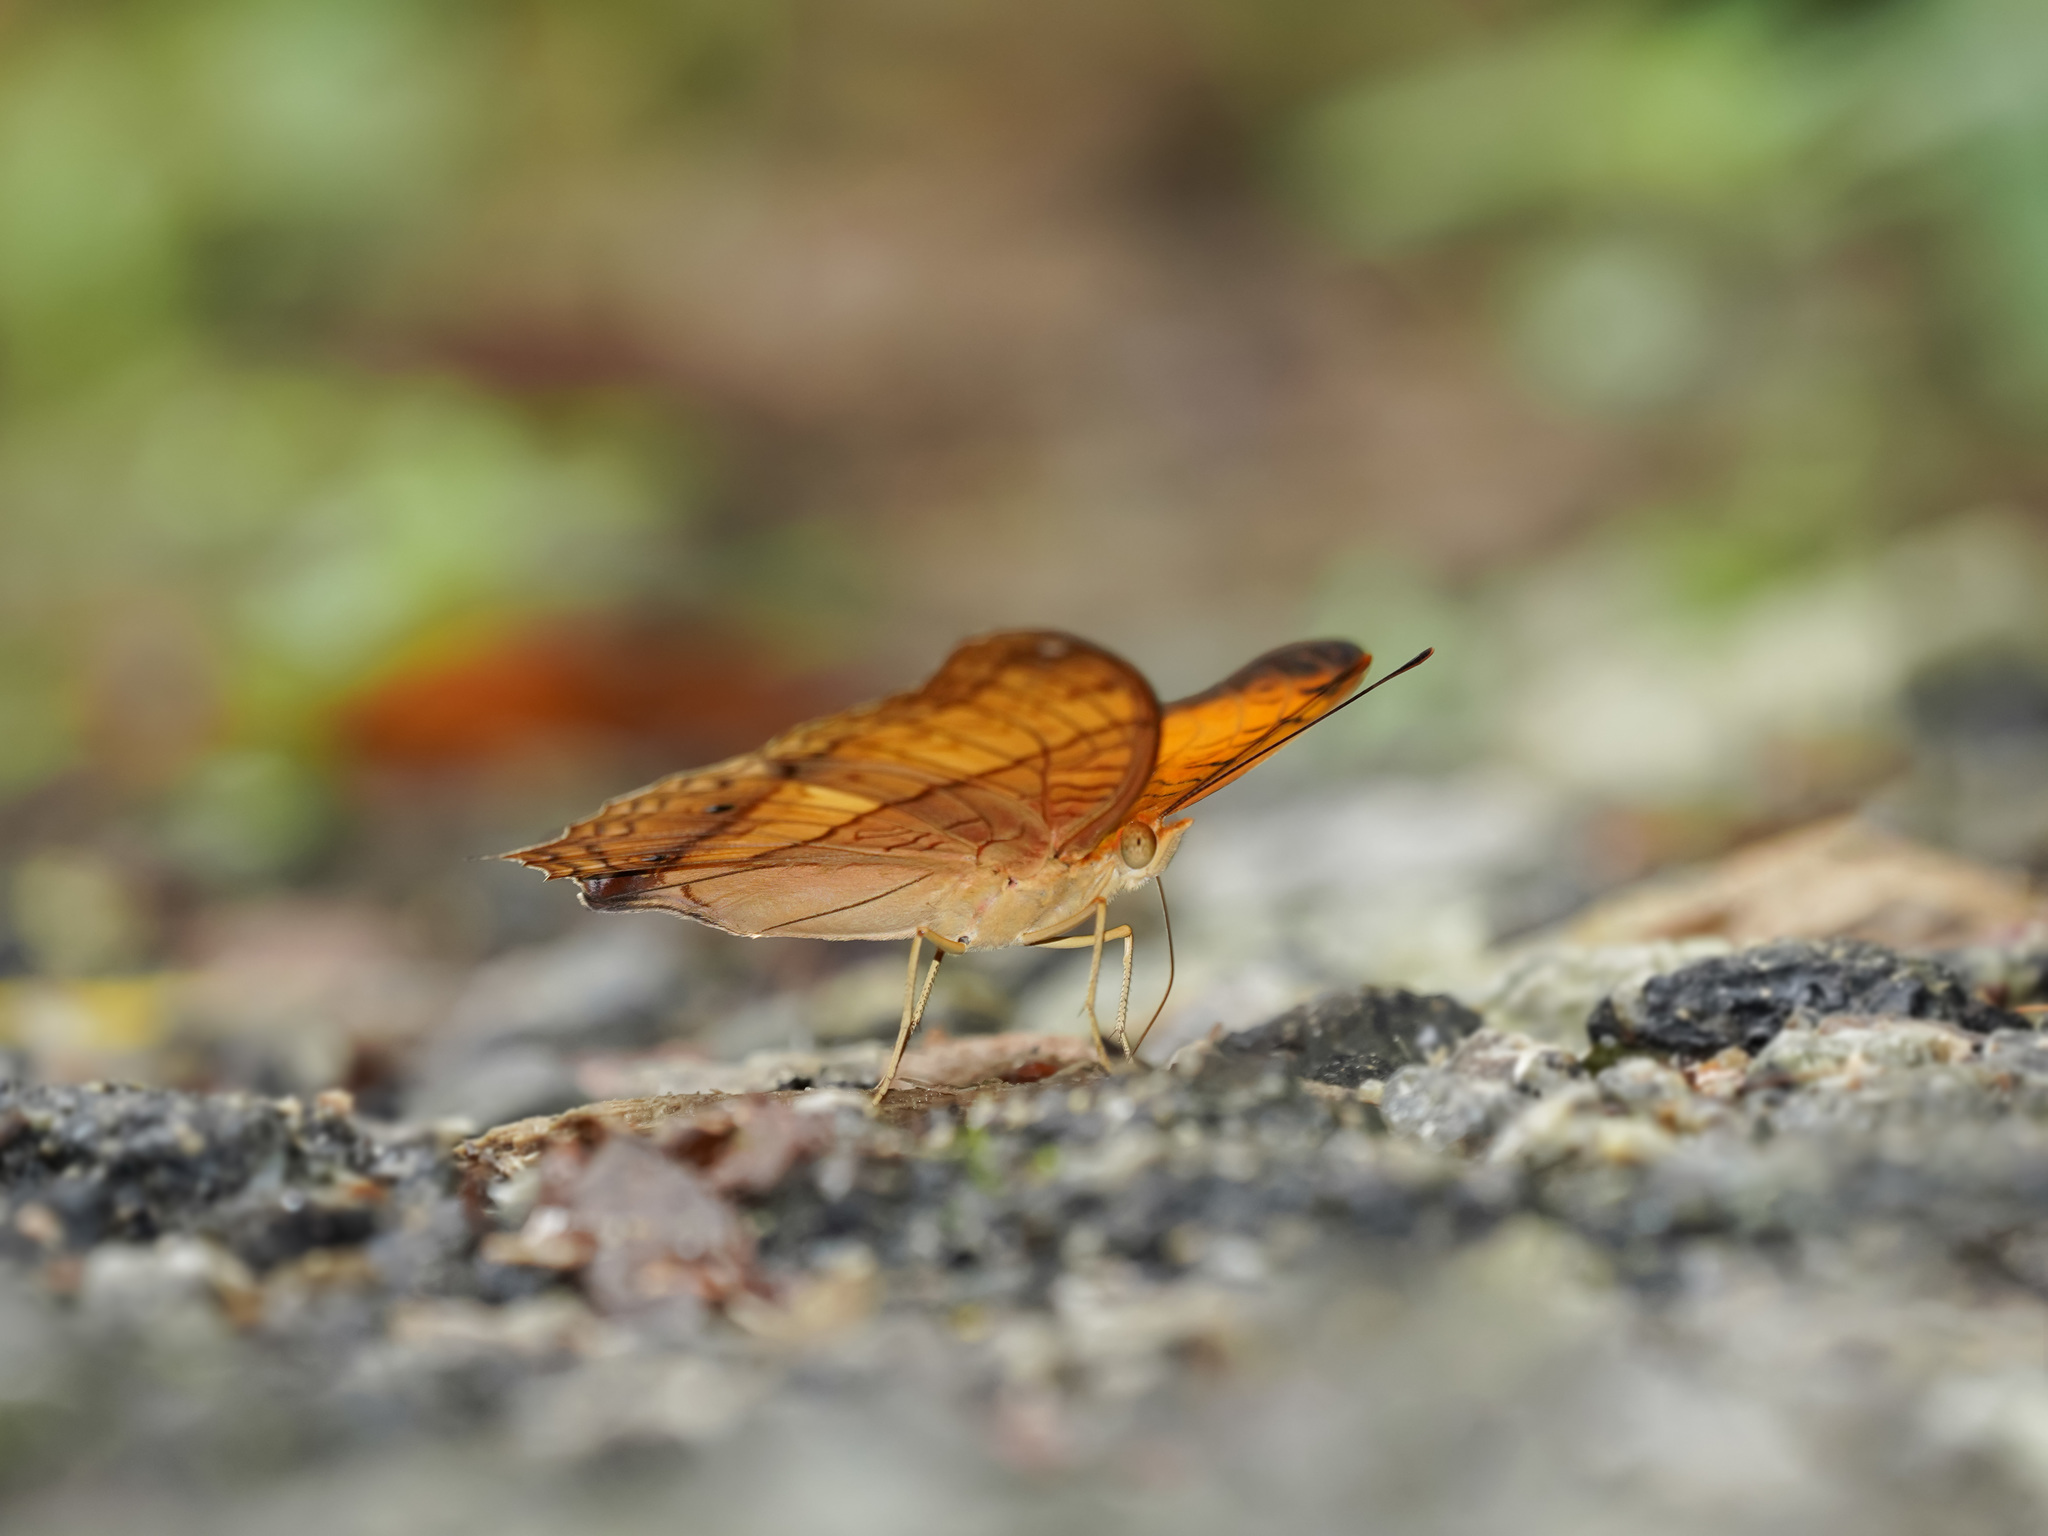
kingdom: Animalia
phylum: Arthropoda
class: Insecta
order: Lepidoptera
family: Nymphalidae
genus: Vindula
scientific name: Vindula deione
